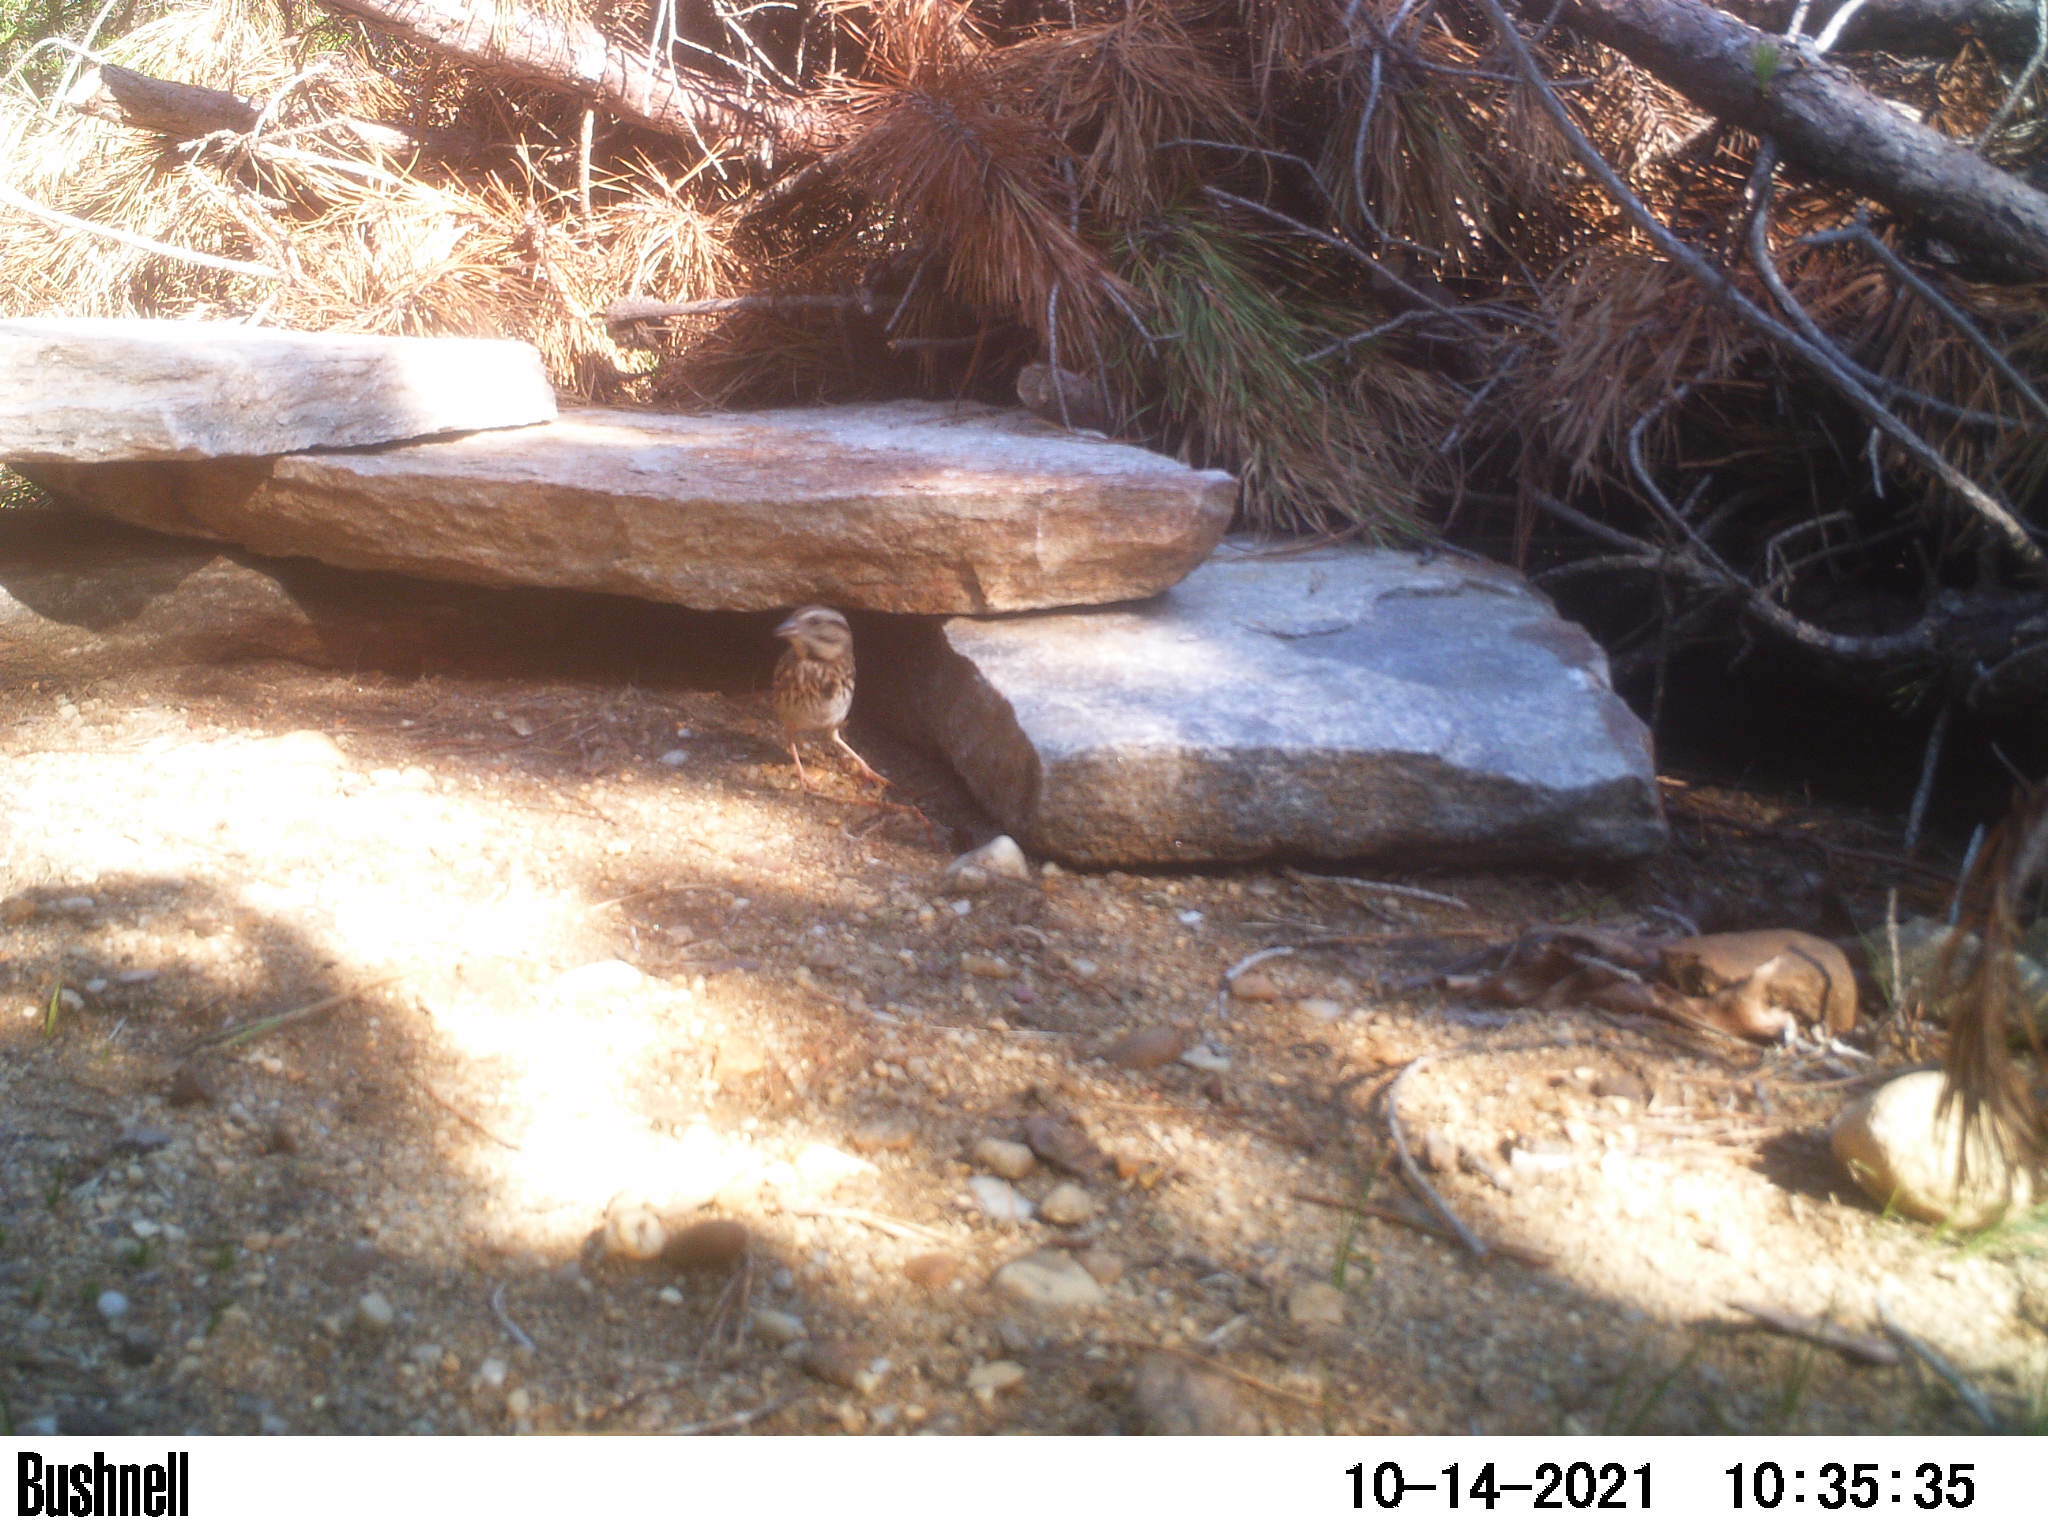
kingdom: Animalia
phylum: Chordata
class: Aves
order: Passeriformes
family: Passerellidae
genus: Melospiza
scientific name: Melospiza melodia
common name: Song sparrow
